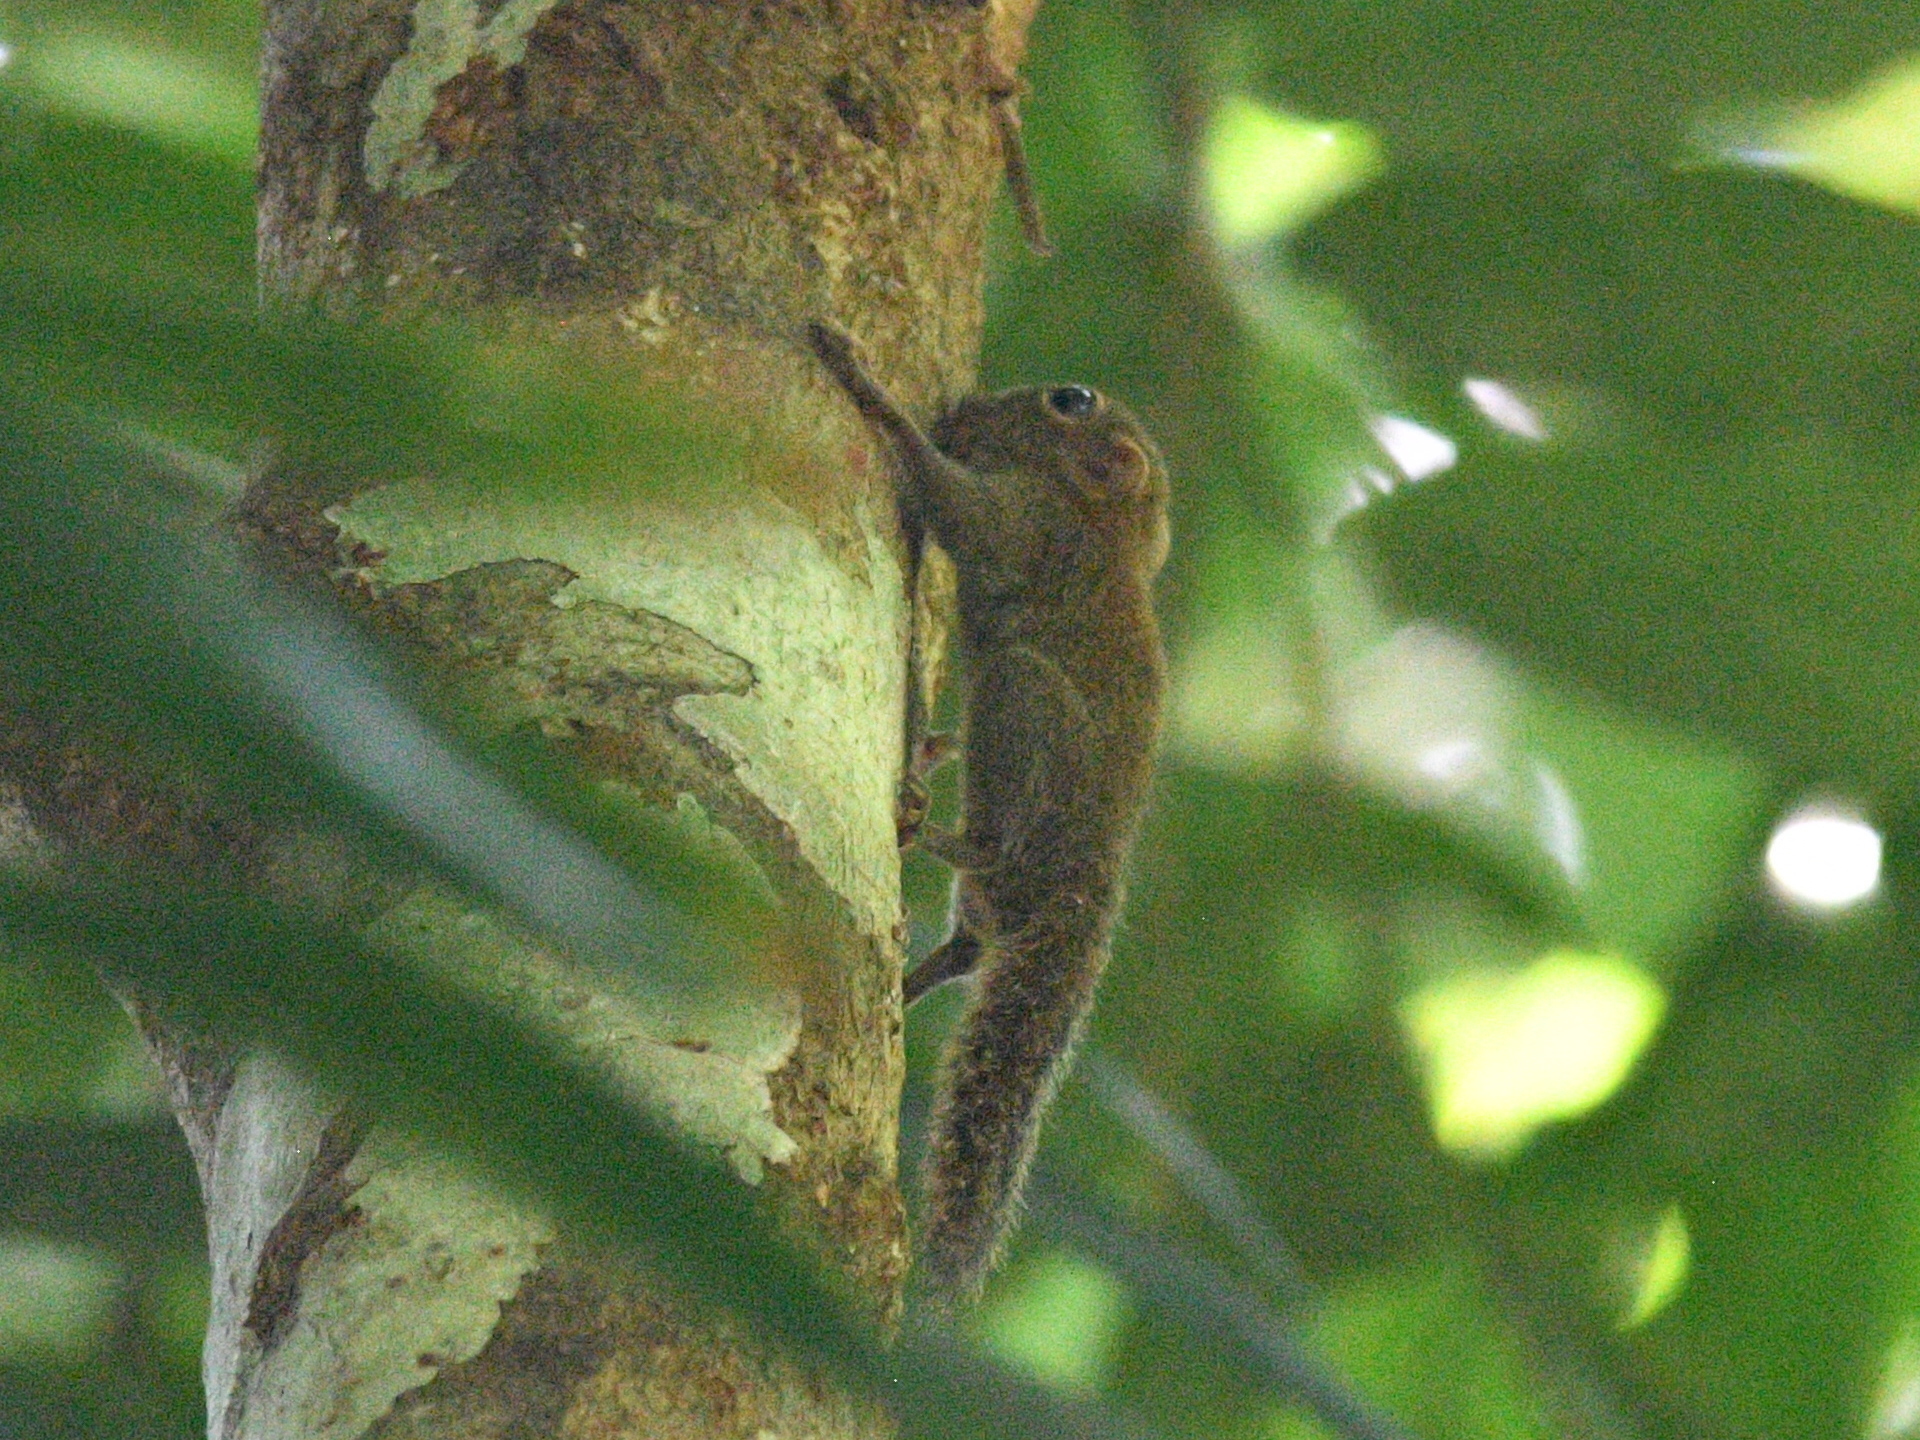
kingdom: Animalia
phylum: Chordata
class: Mammalia
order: Rodentia
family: Sciuridae
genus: Exilisciurus
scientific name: Exilisciurus exilis
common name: Least pygmy squirrel
